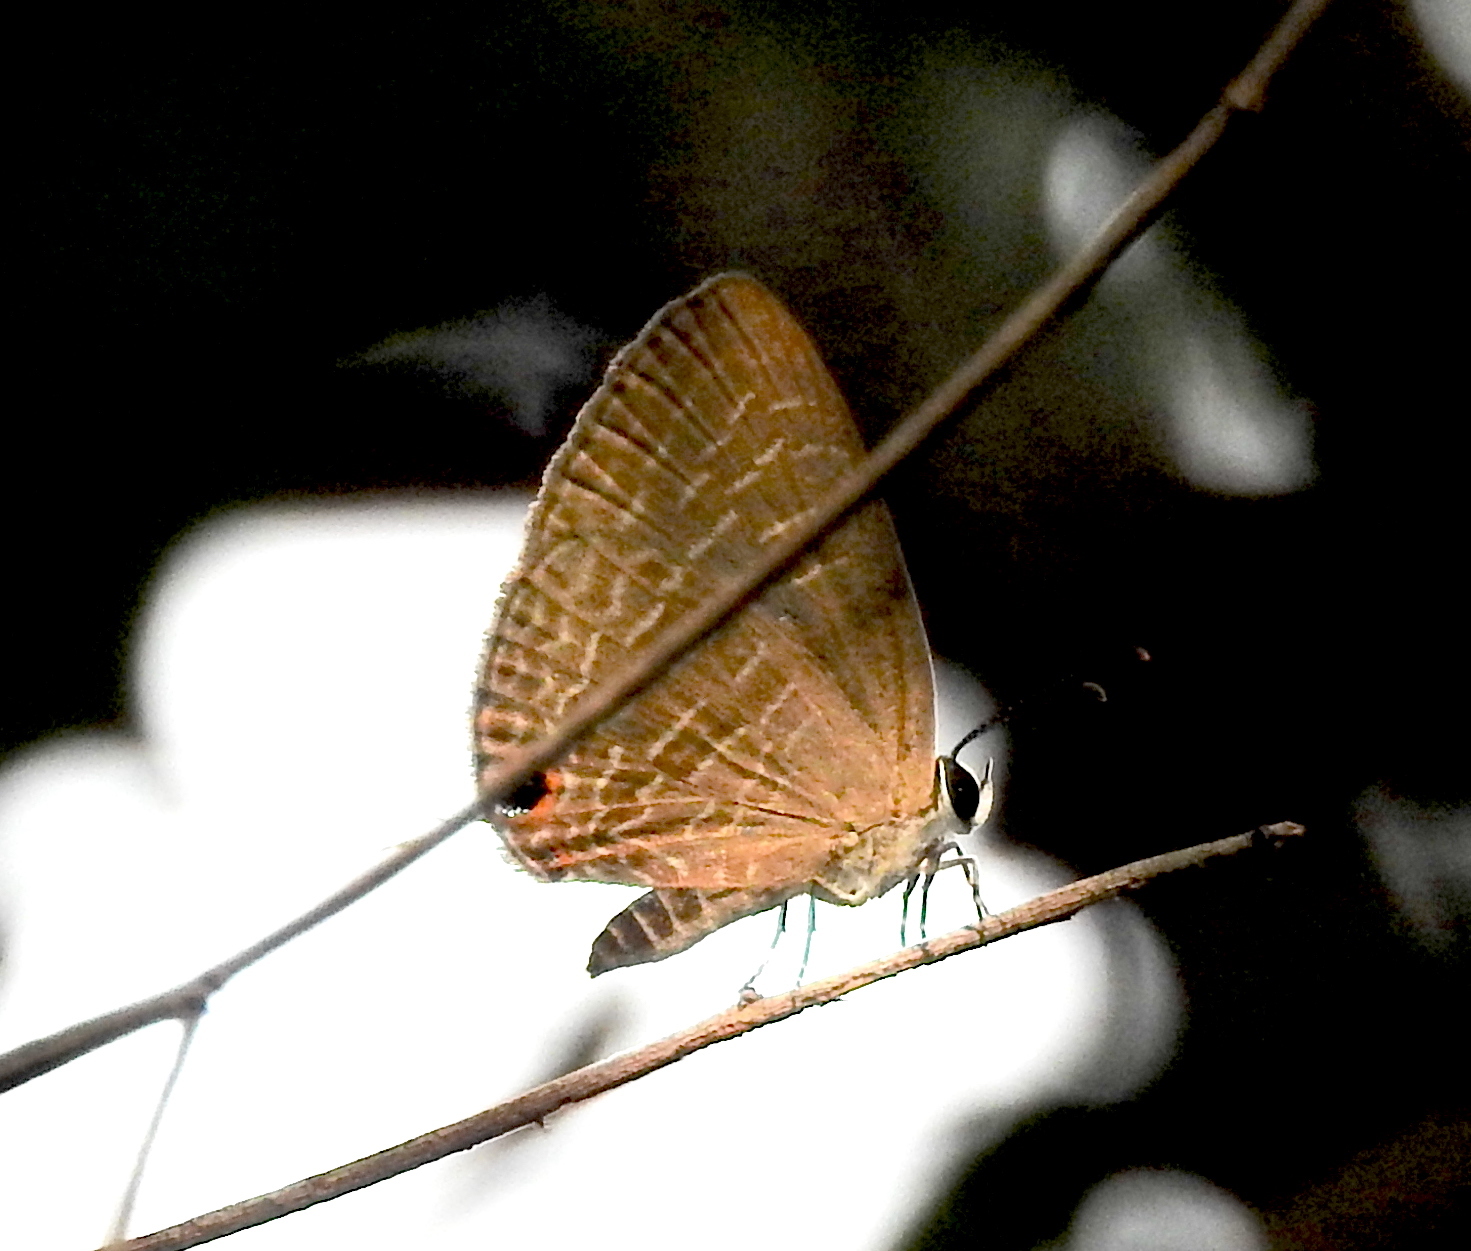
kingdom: Animalia
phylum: Arthropoda
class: Insecta
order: Lepidoptera
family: Lycaenidae
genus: Jamides
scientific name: Jamides bochus
